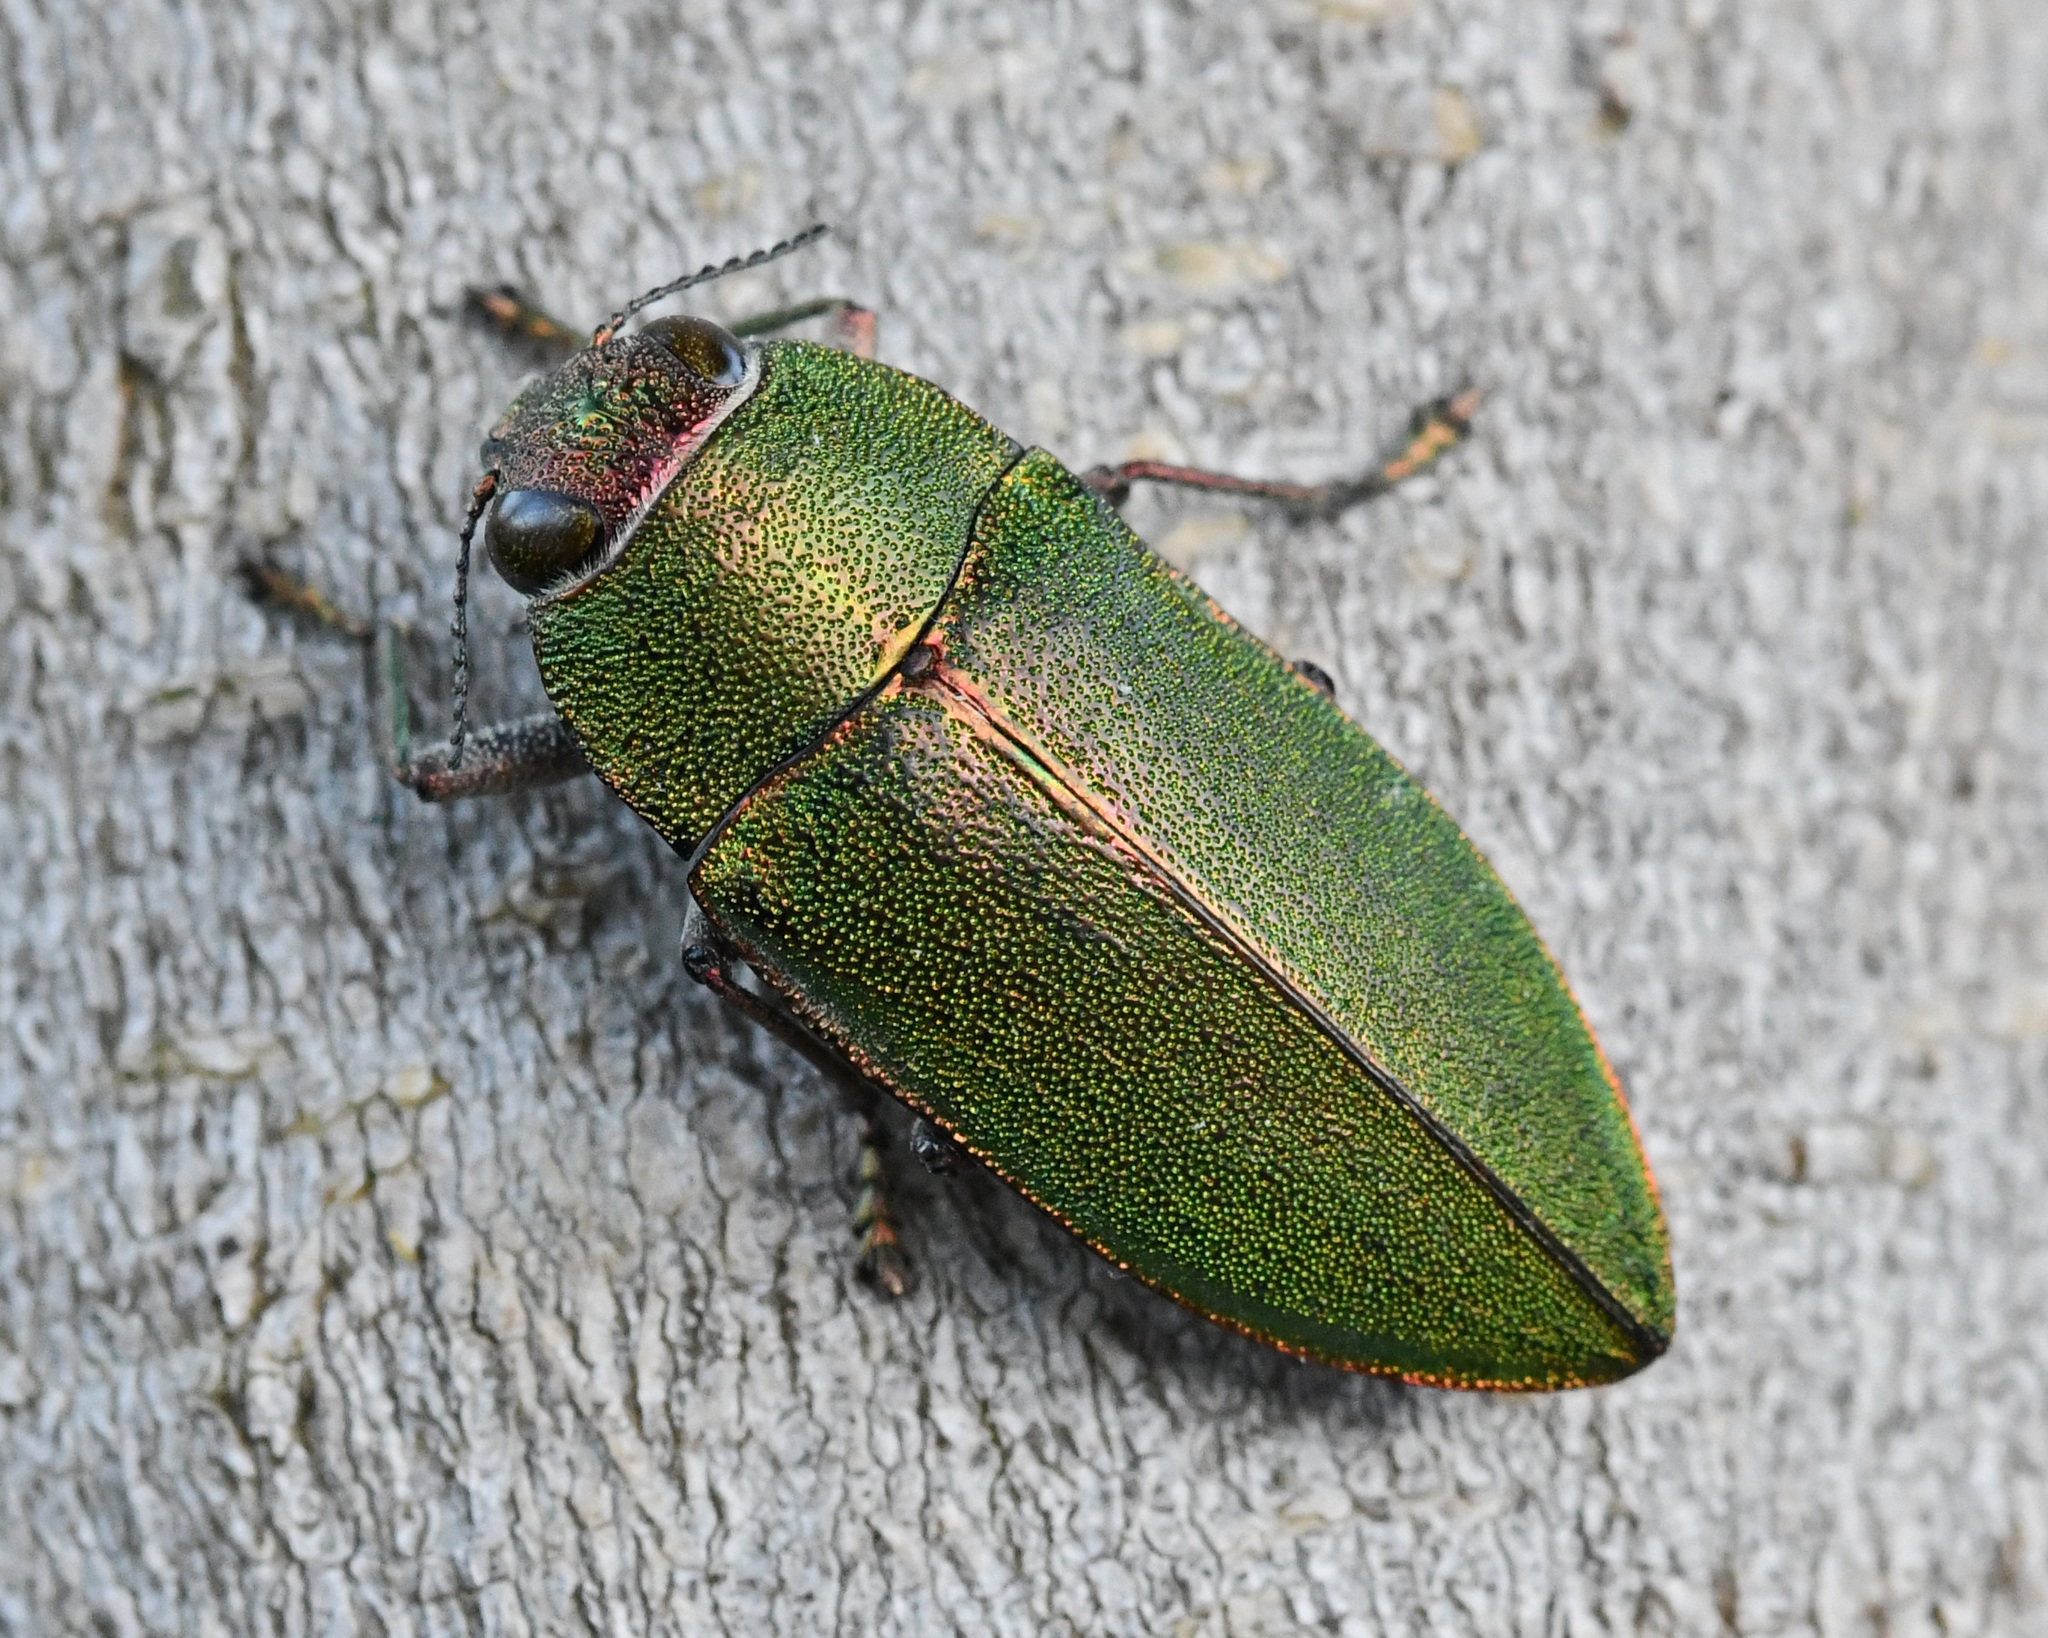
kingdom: Animalia
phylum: Arthropoda
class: Insecta
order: Coleoptera
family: Buprestidae
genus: Perotis
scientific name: Perotis susannae
